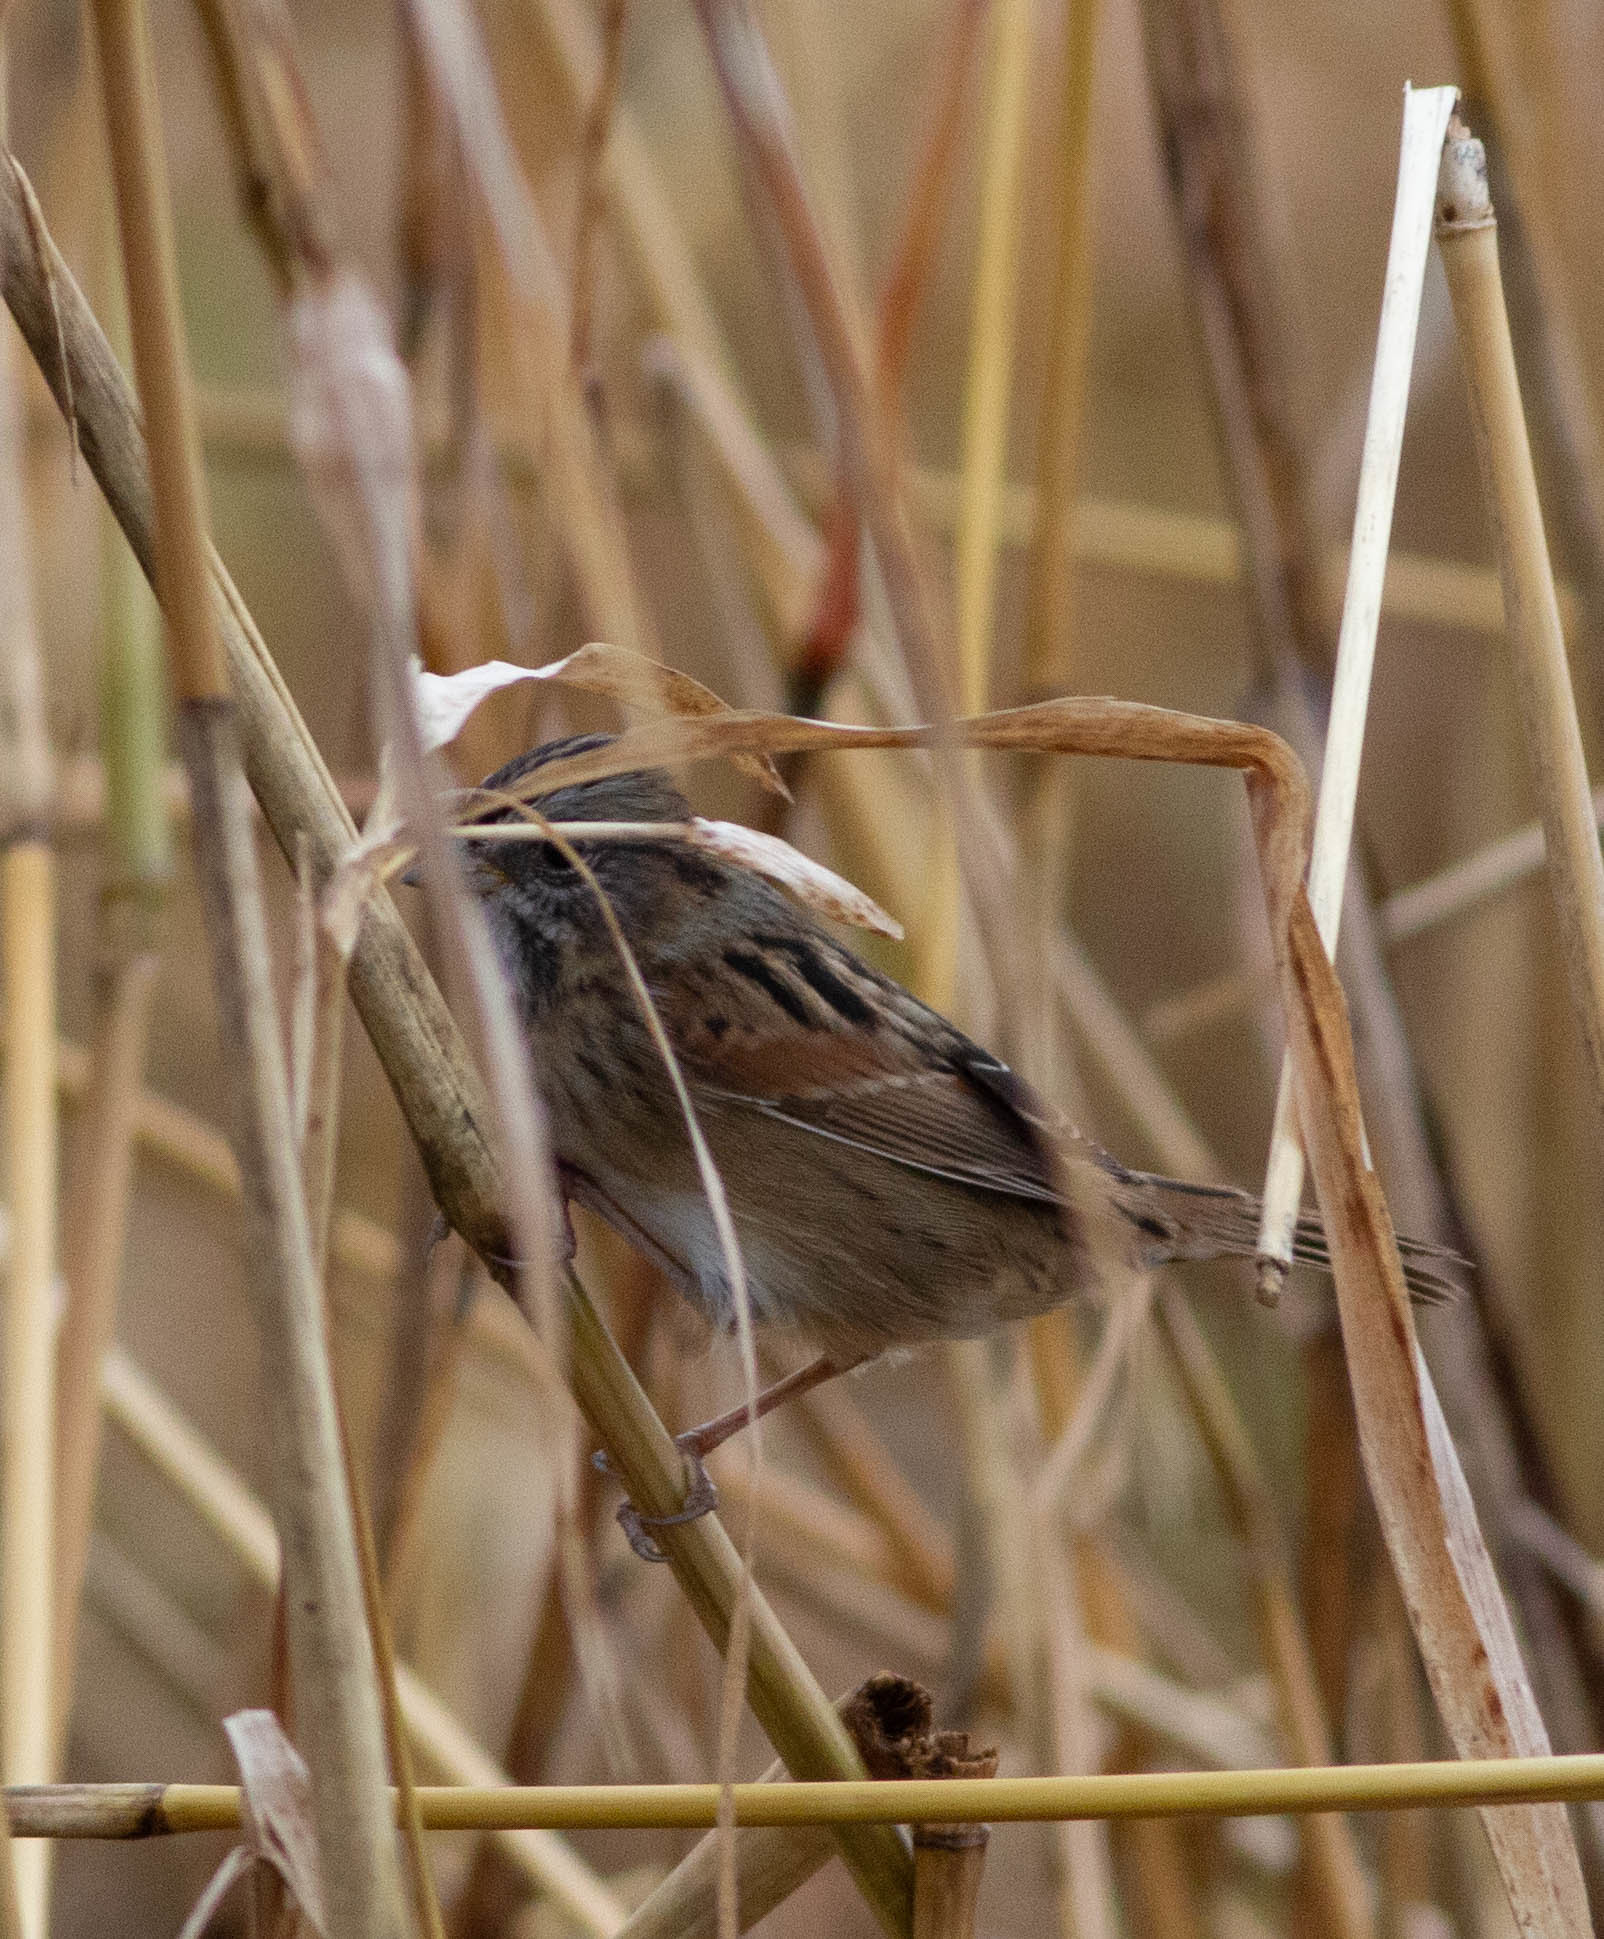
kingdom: Animalia
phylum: Chordata
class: Aves
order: Passeriformes
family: Passerellidae
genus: Melospiza
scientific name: Melospiza georgiana
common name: Swamp sparrow
